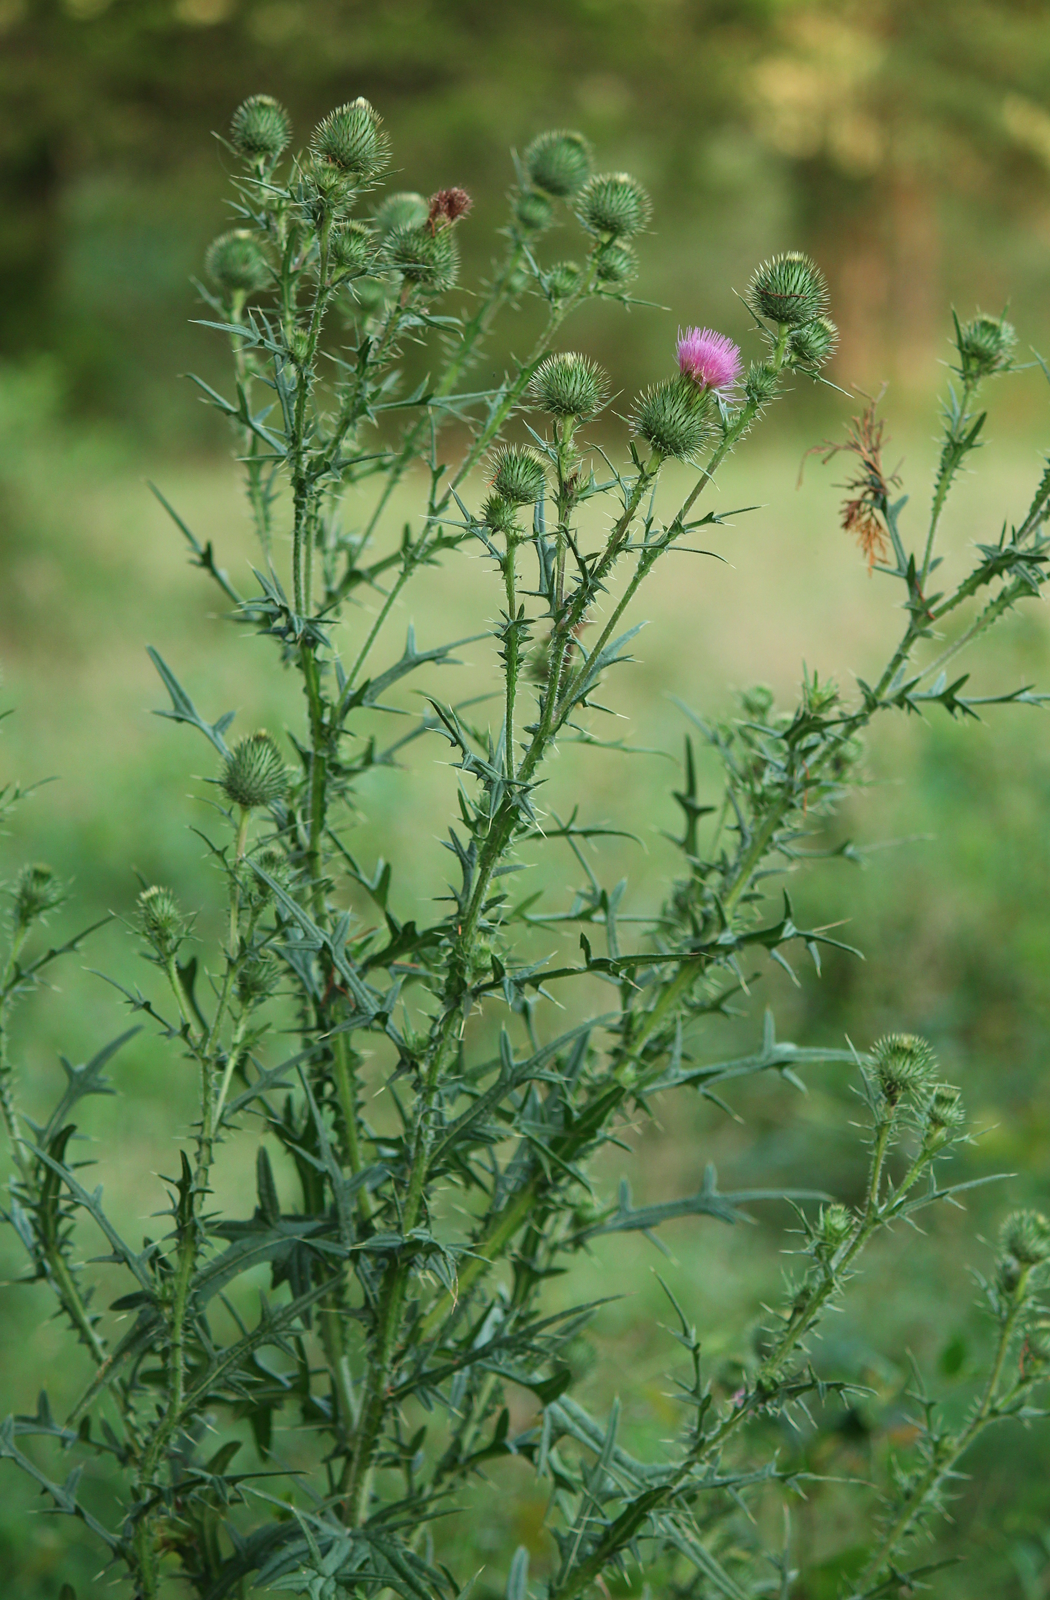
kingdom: Plantae
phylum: Tracheophyta
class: Magnoliopsida
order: Asterales
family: Asteraceae
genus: Cirsium
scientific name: Cirsium vulgare
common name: Bull thistle
